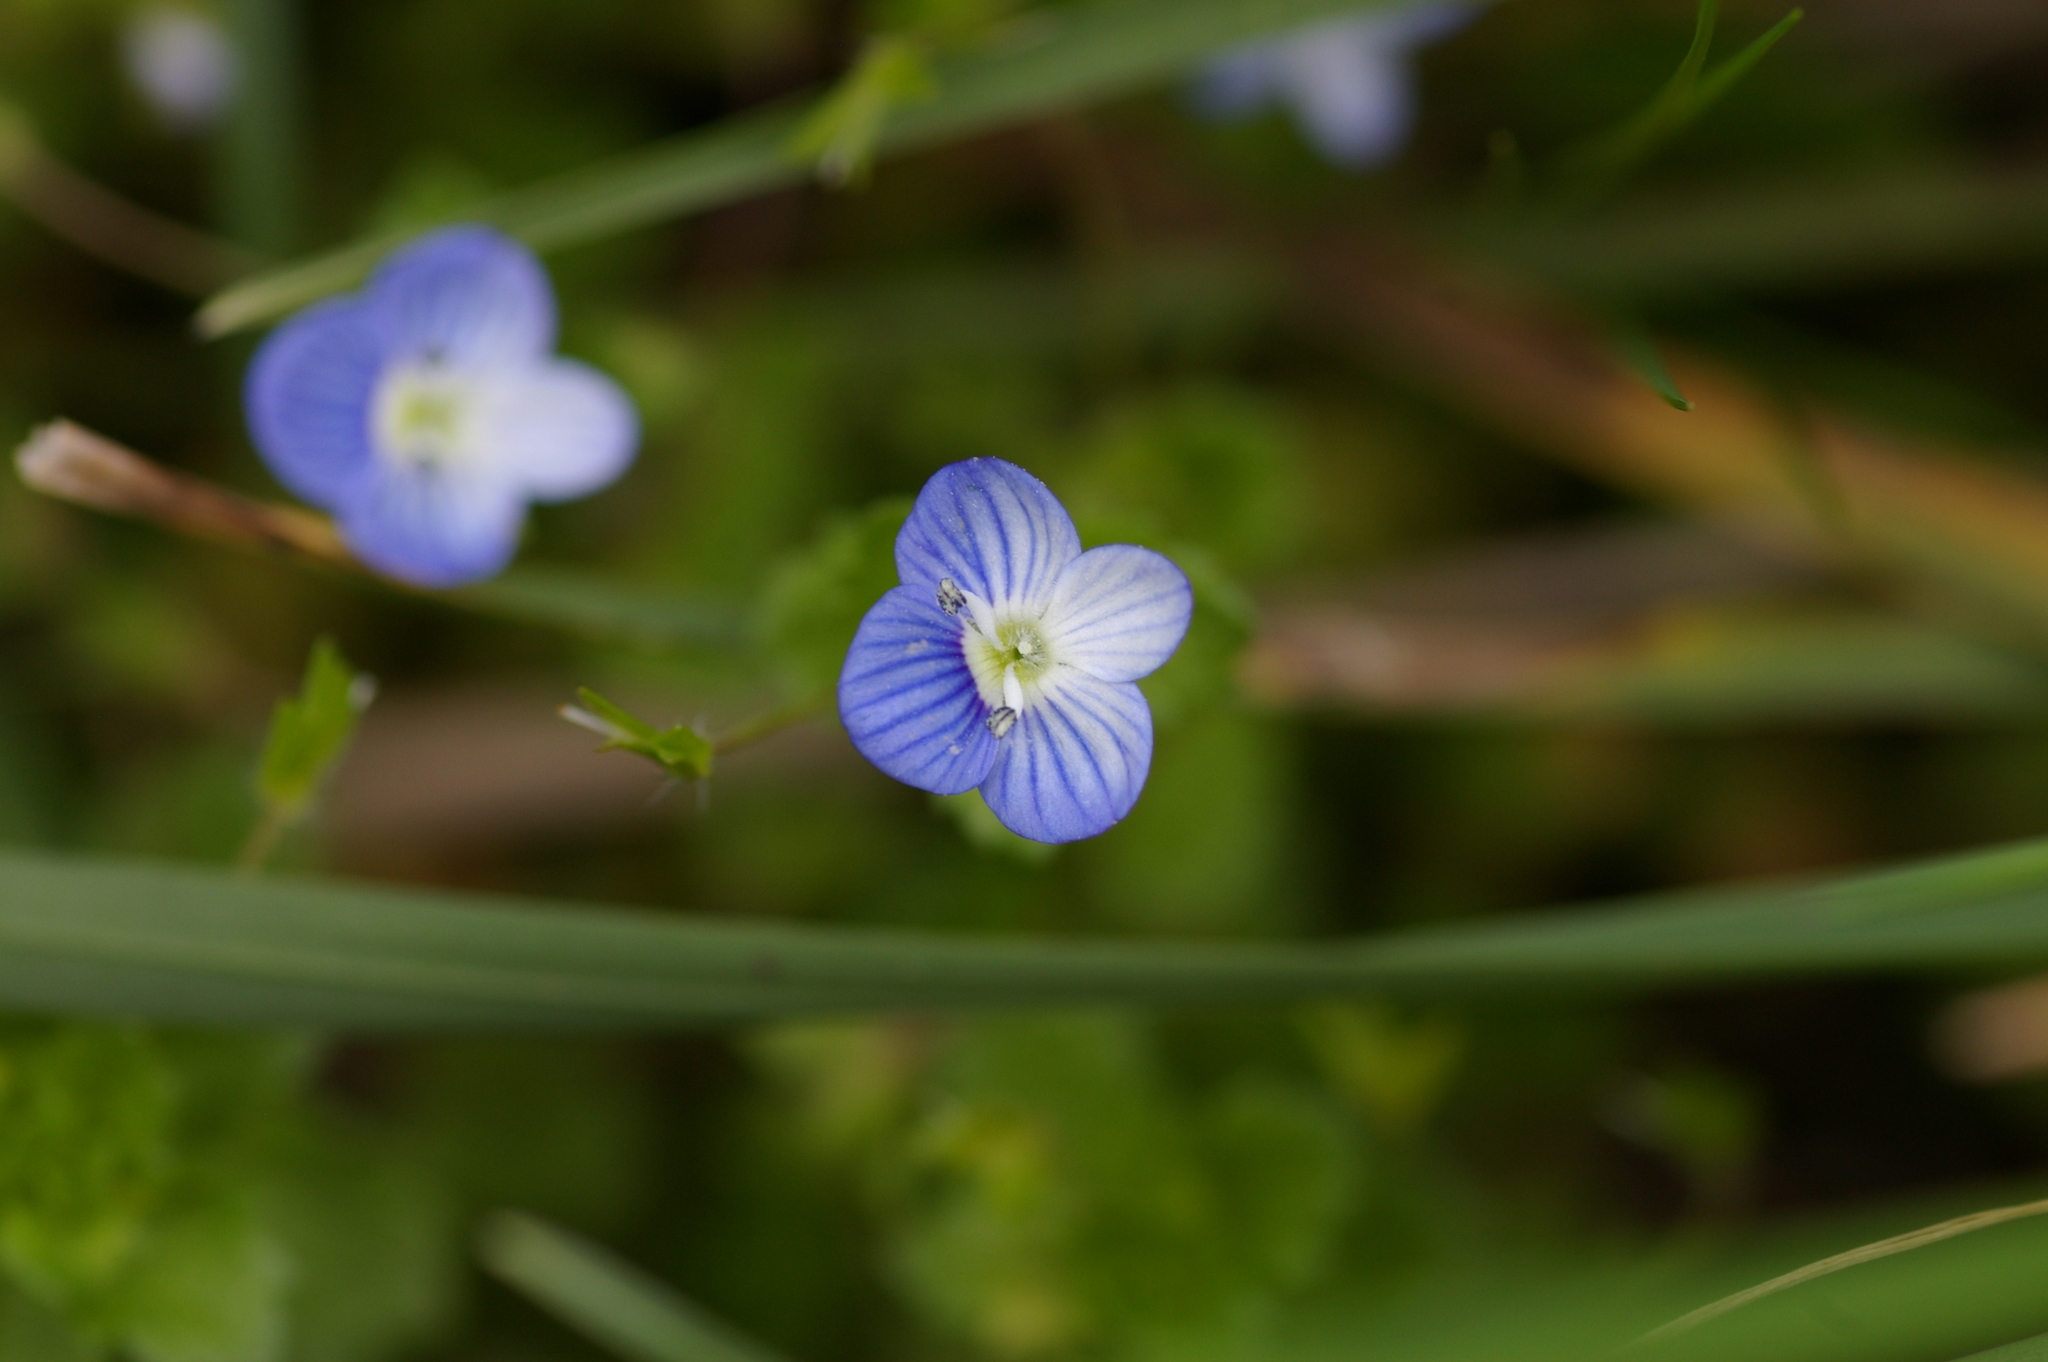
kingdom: Plantae
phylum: Tracheophyta
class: Magnoliopsida
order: Lamiales
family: Plantaginaceae
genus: Veronica
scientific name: Veronica persica
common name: Common field-speedwell
